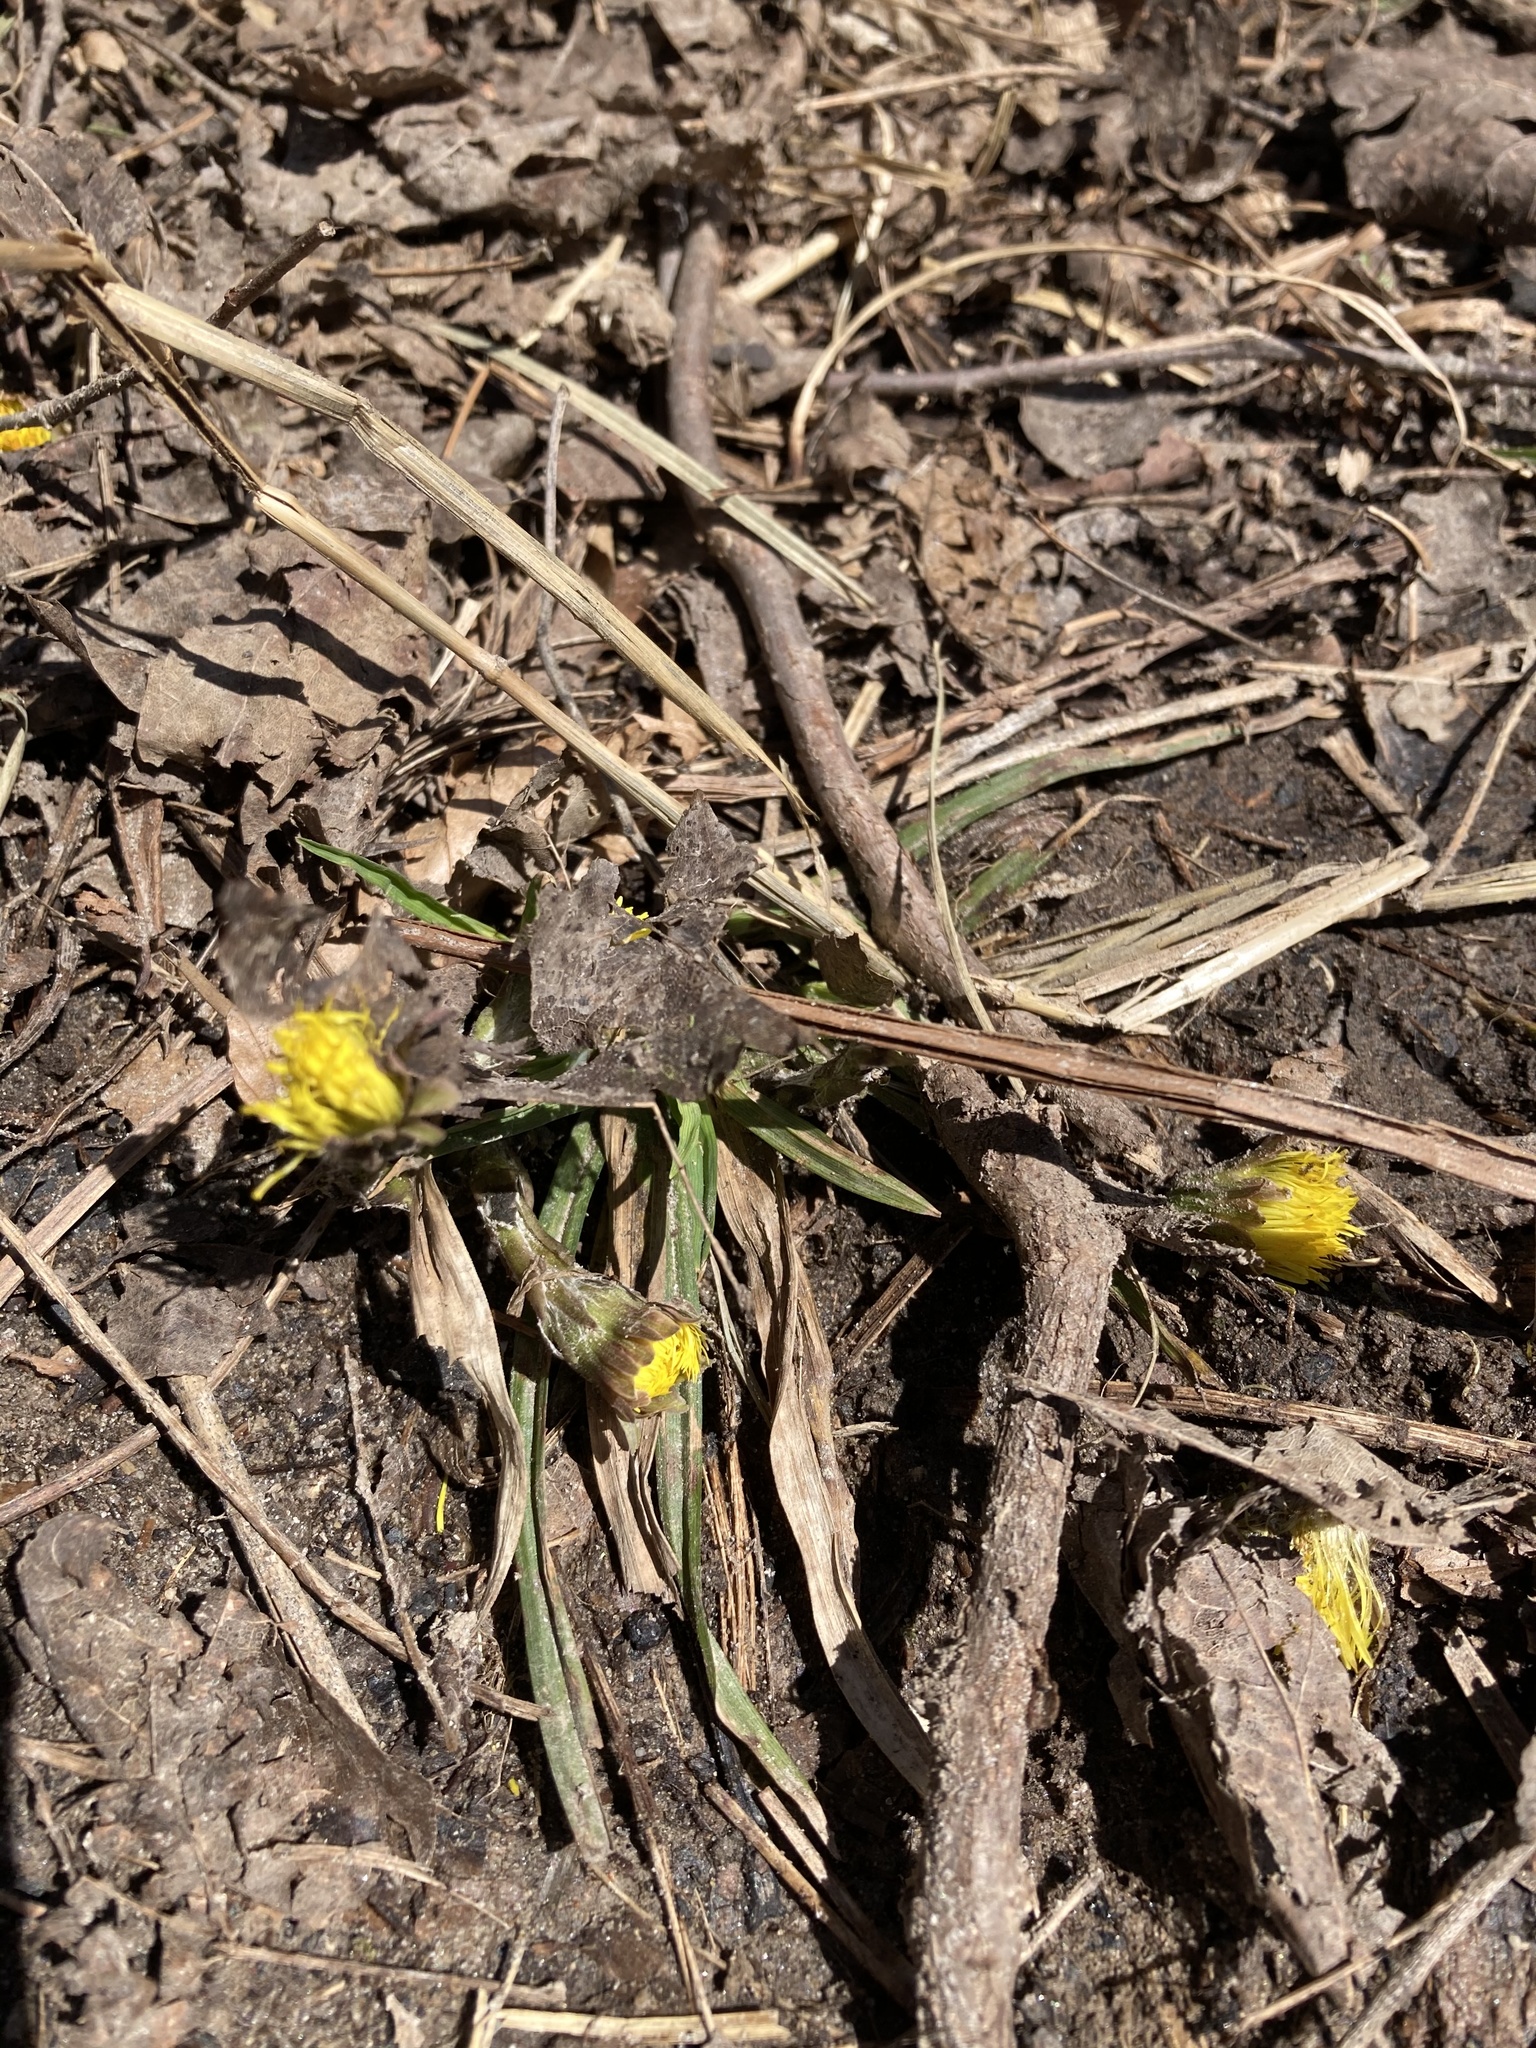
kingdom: Plantae
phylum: Tracheophyta
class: Magnoliopsida
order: Asterales
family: Asteraceae
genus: Tussilago
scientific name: Tussilago farfara
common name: Coltsfoot
